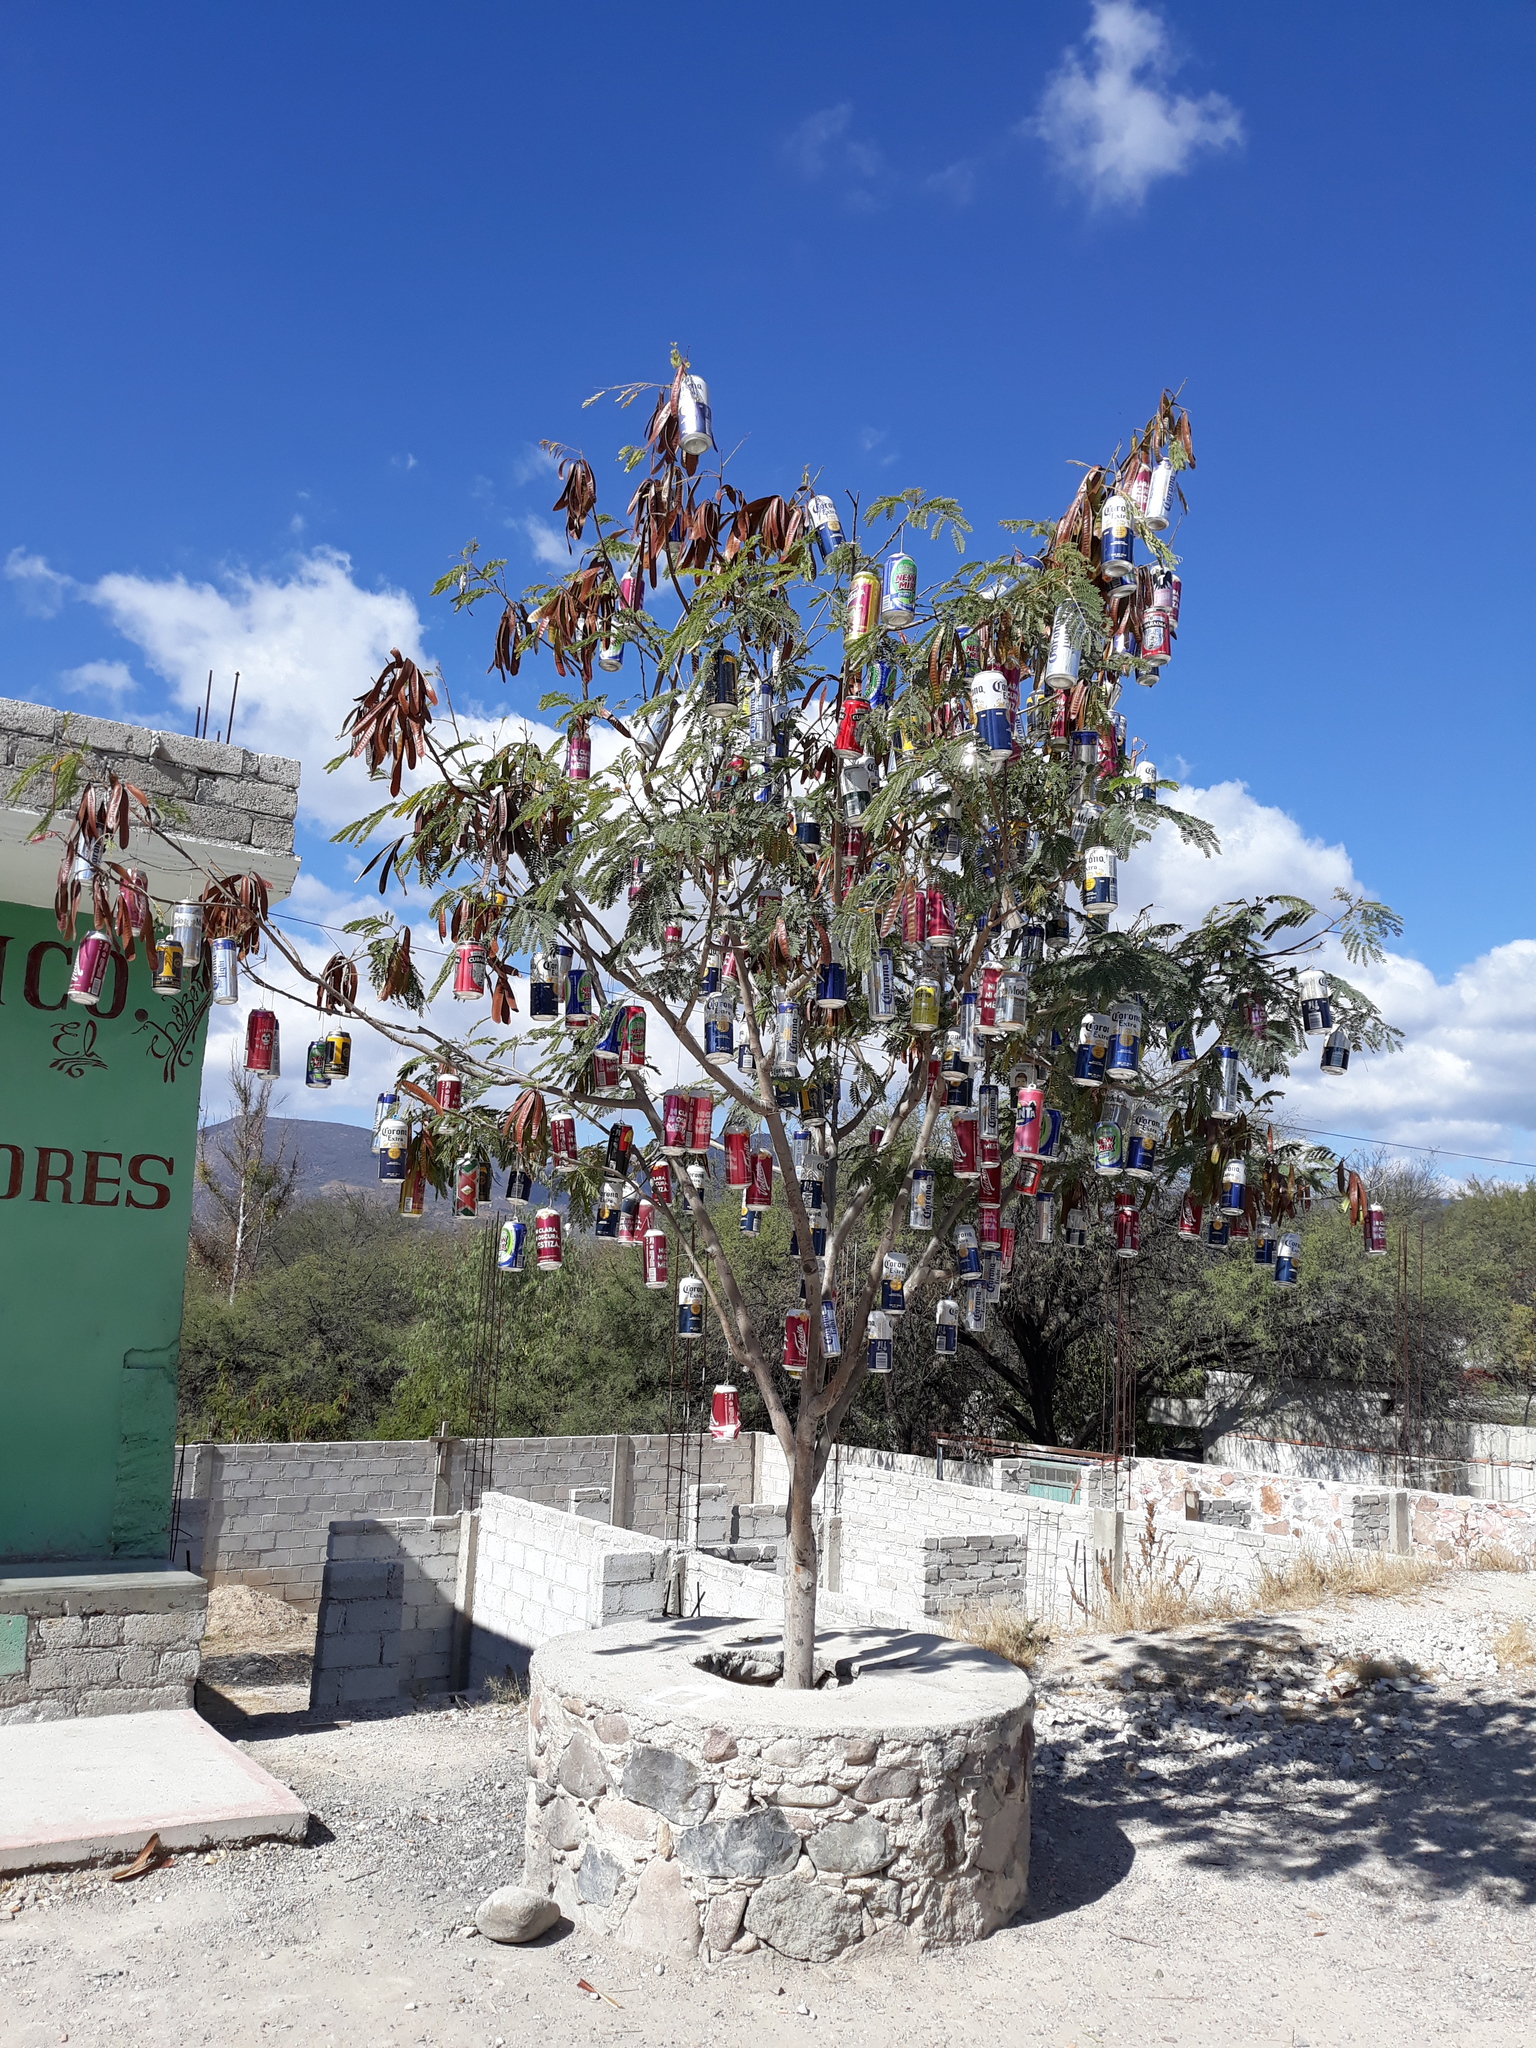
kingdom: Plantae
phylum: Tracheophyta
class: Magnoliopsida
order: Fabales
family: Fabaceae
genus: Leucaena
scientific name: Leucaena leucocephala
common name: White leadtree
